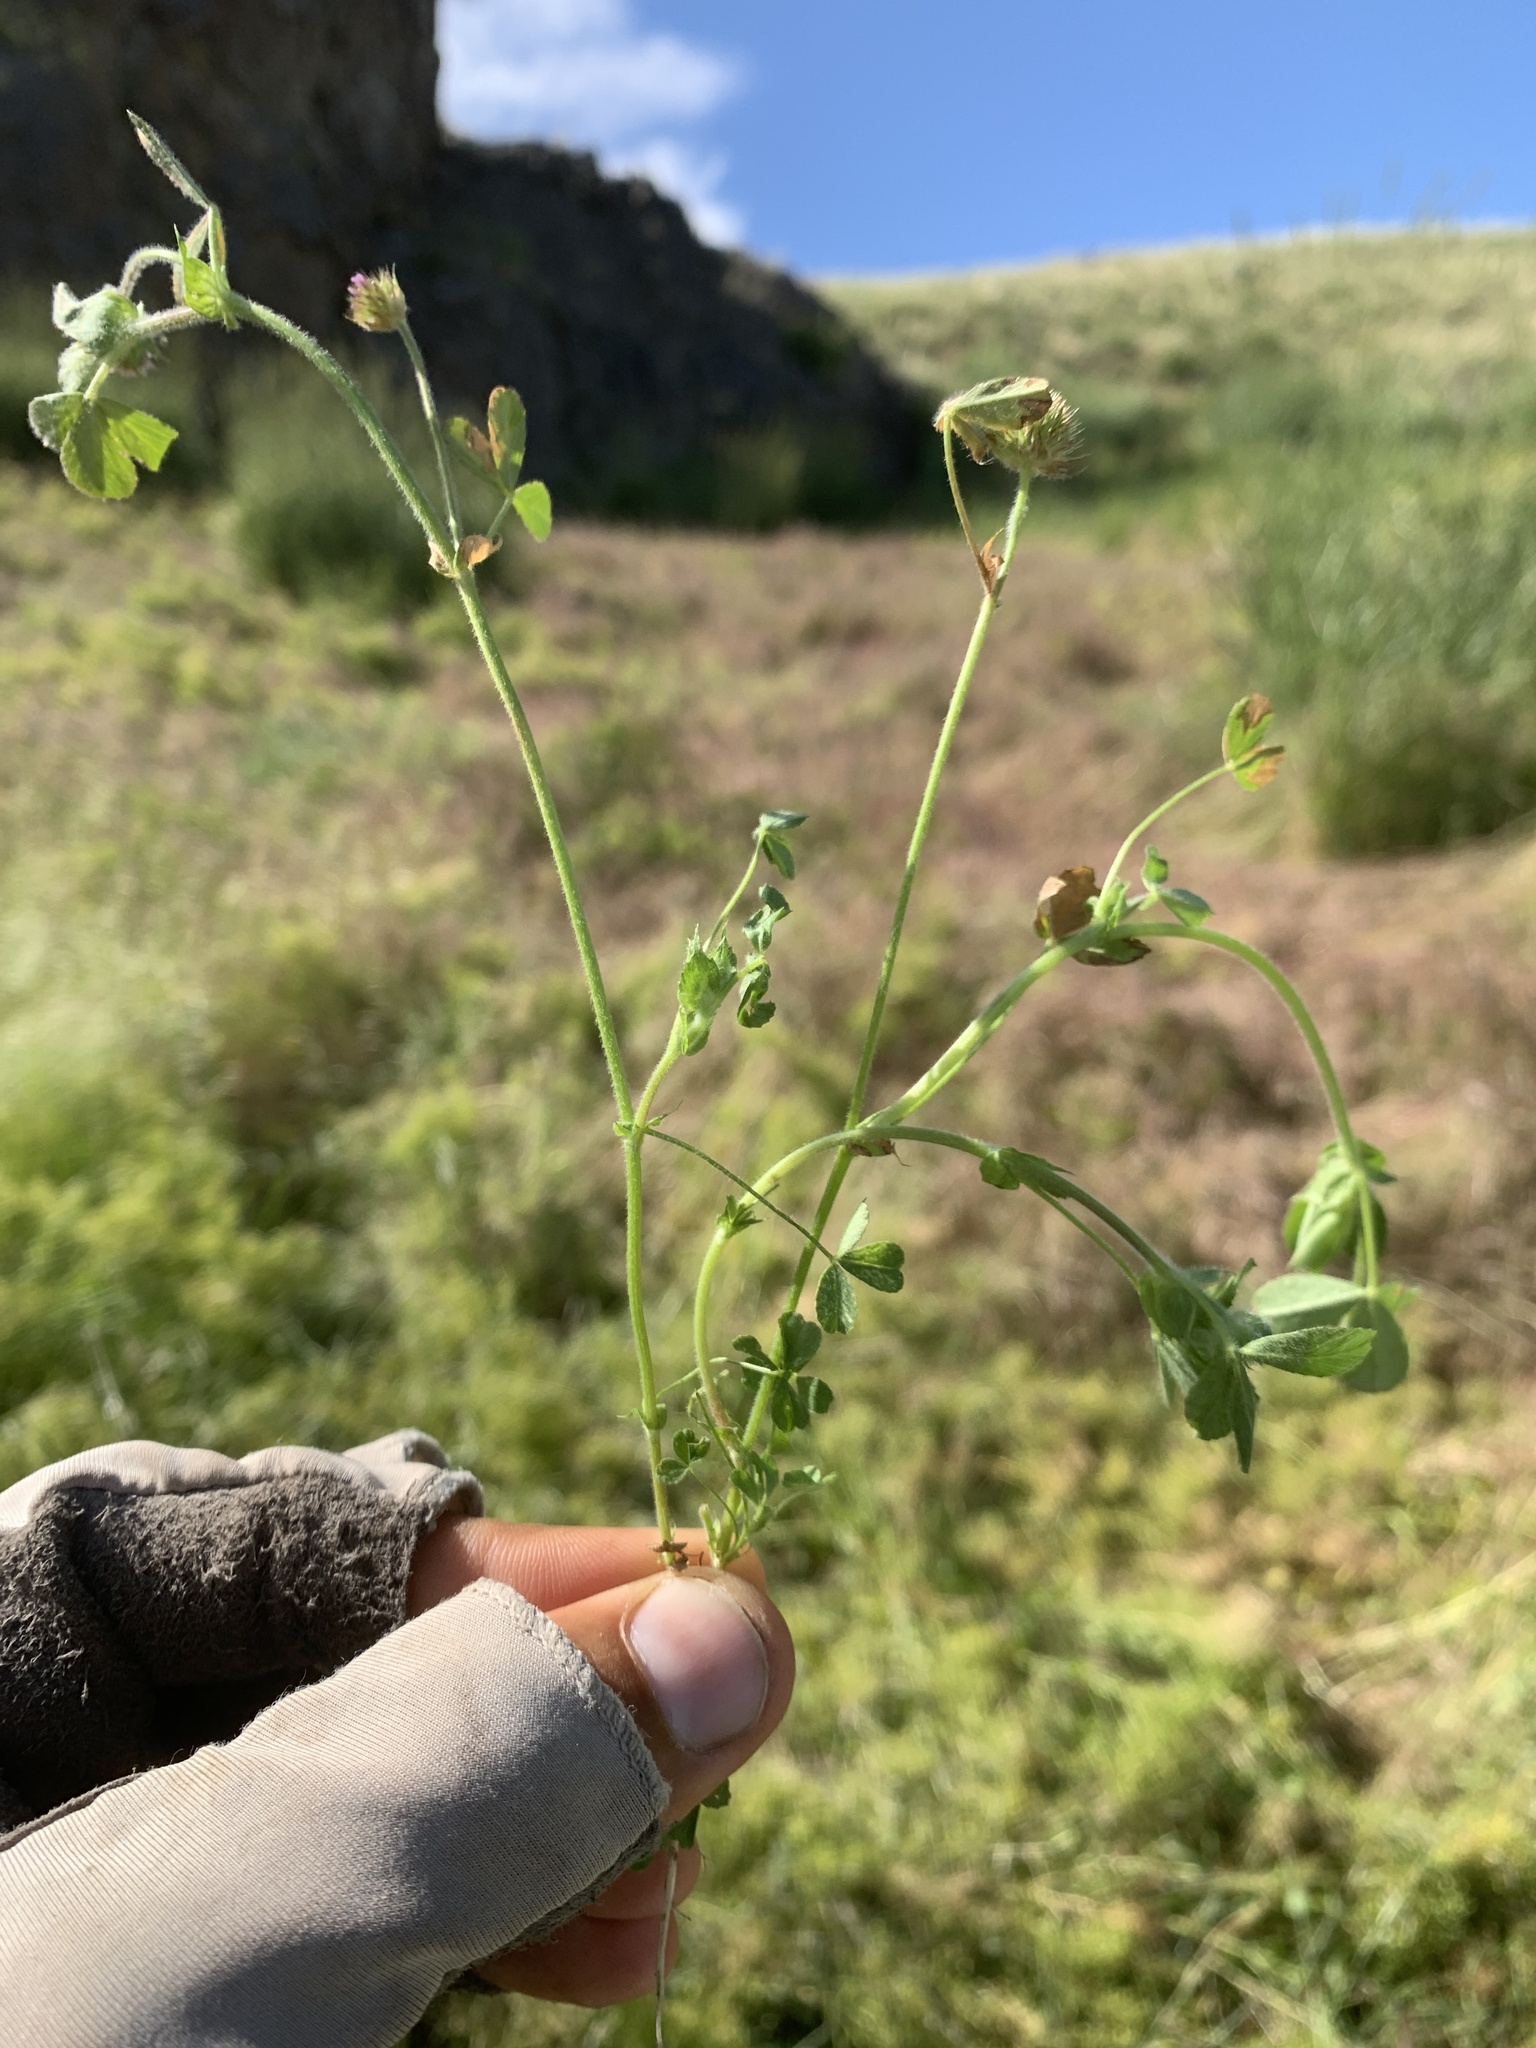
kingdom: Plantae
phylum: Tracheophyta
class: Magnoliopsida
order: Fabales
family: Fabaceae
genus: Trifolium
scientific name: Trifolium microcephalum
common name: Maiden clover
